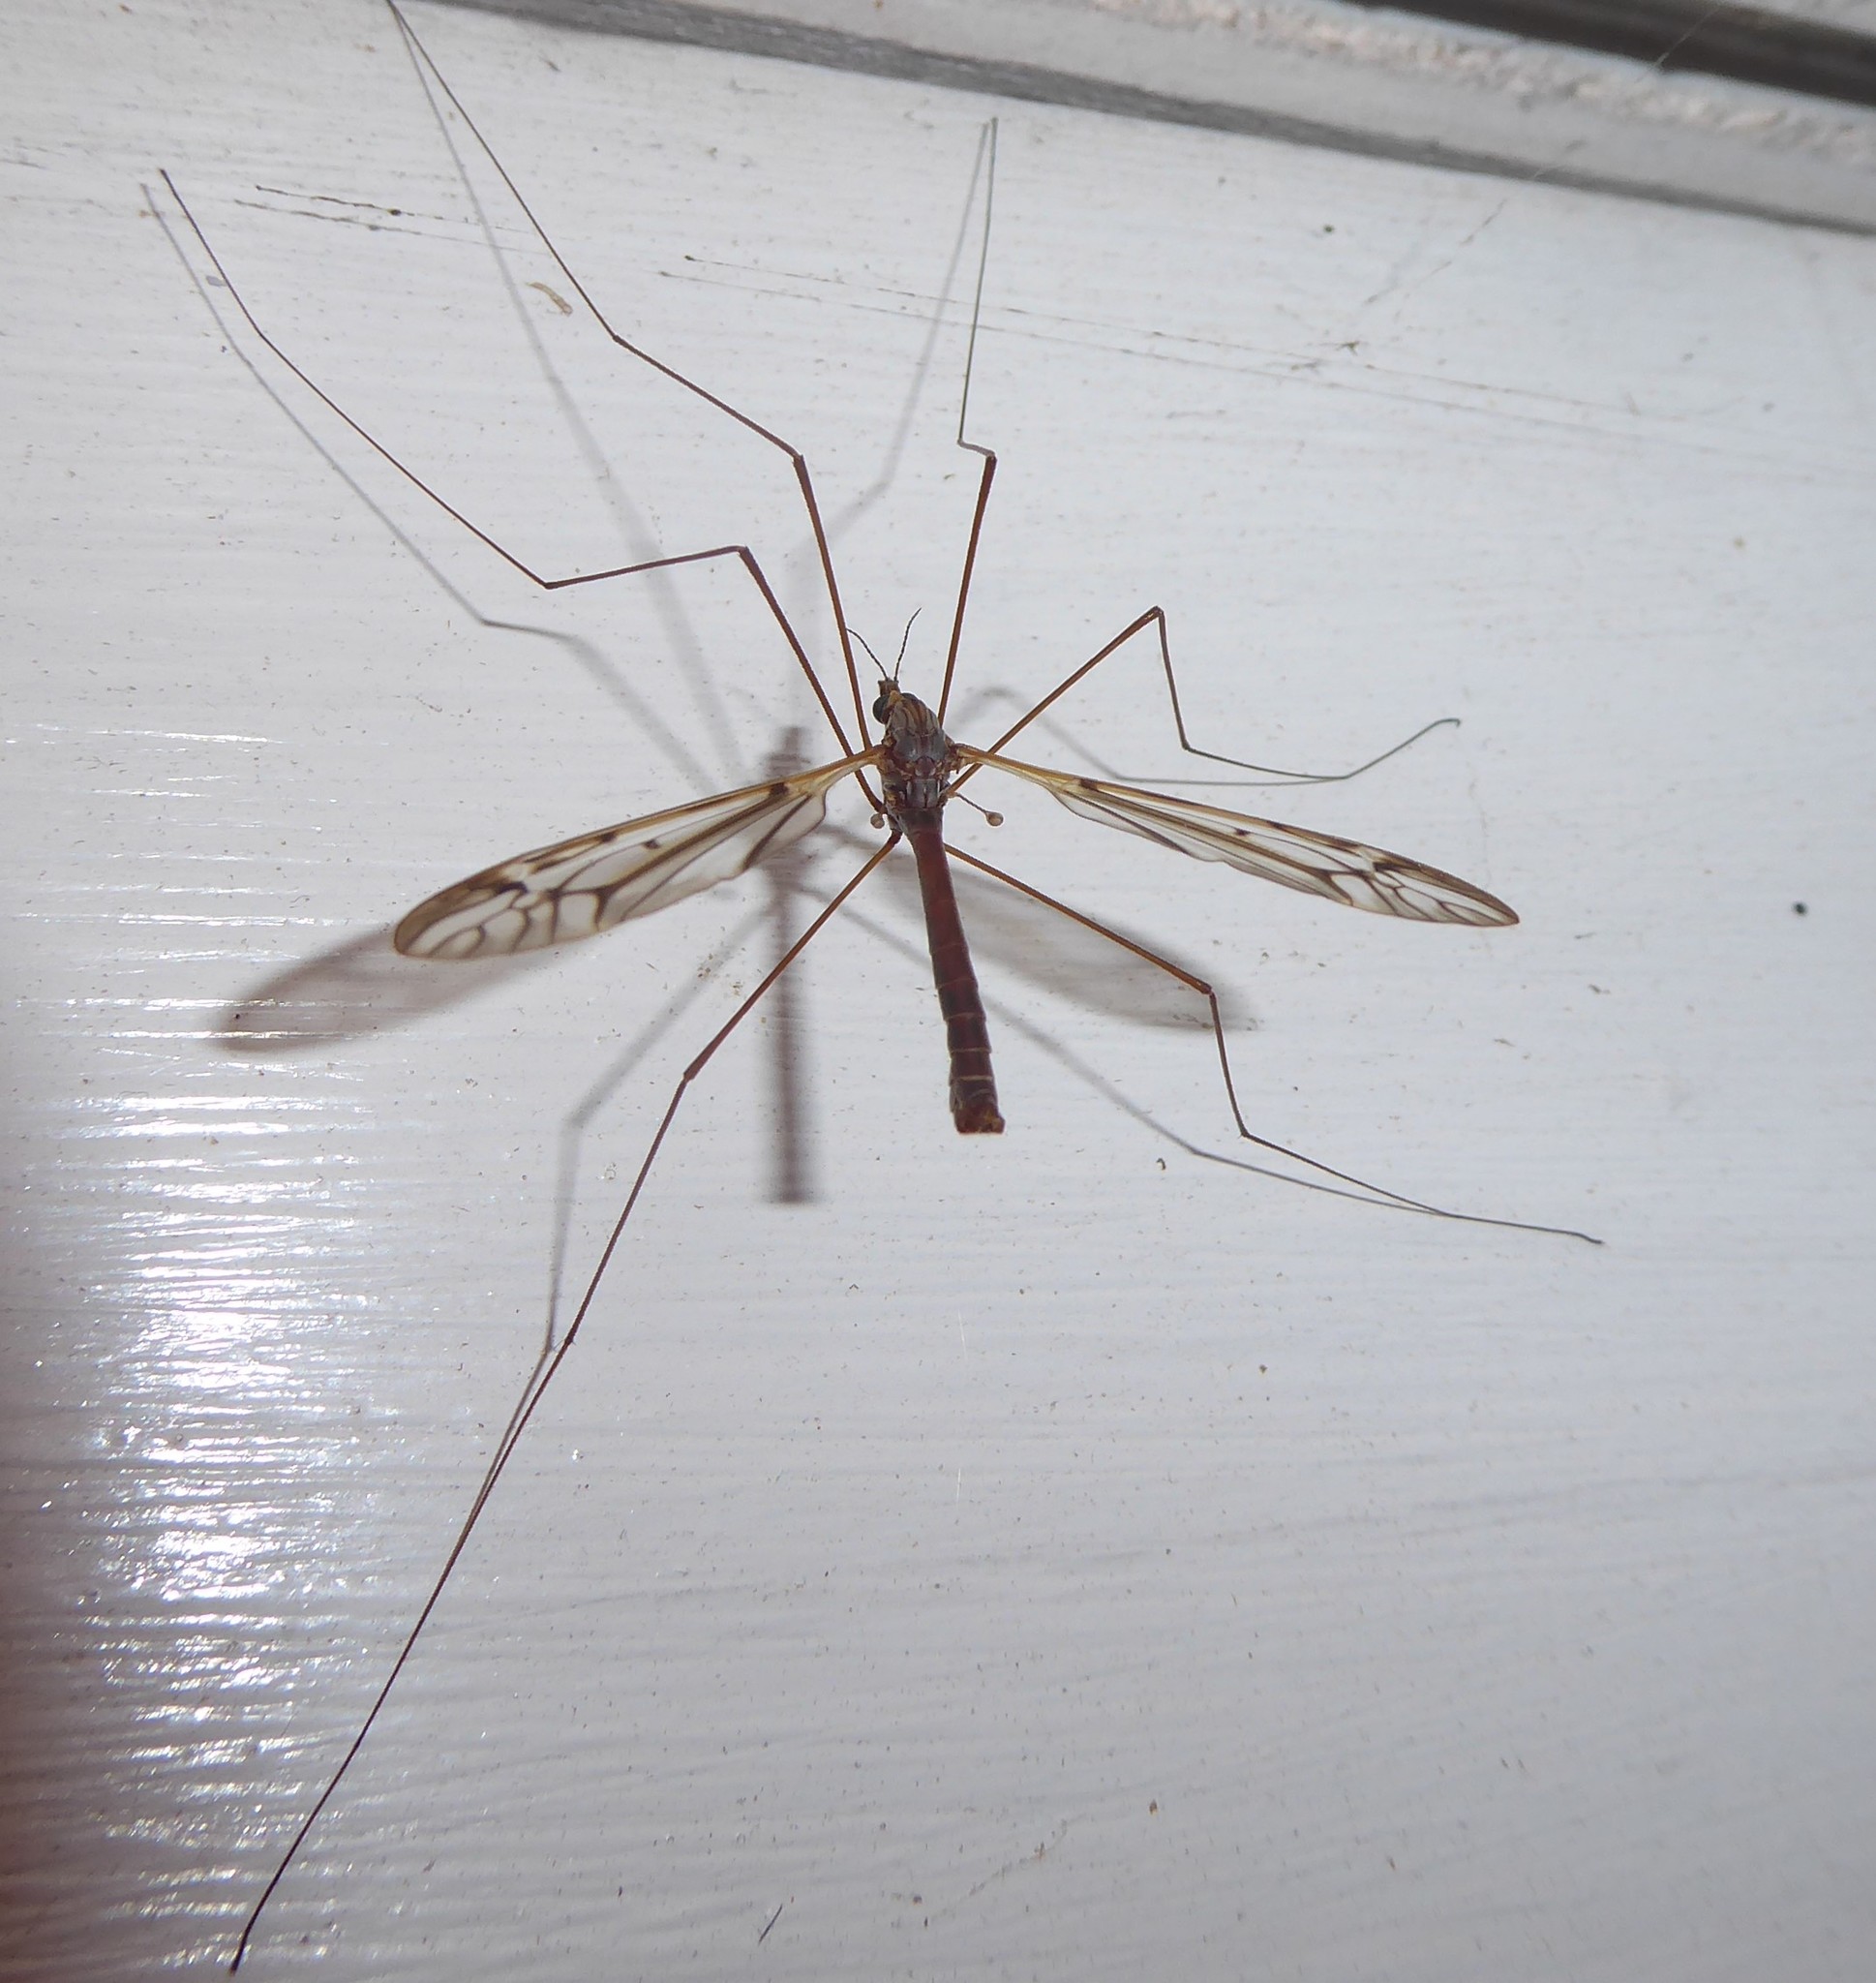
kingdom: Animalia
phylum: Arthropoda
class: Insecta
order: Diptera
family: Tipulidae
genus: Zelandotipula
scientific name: Zelandotipula novarae
